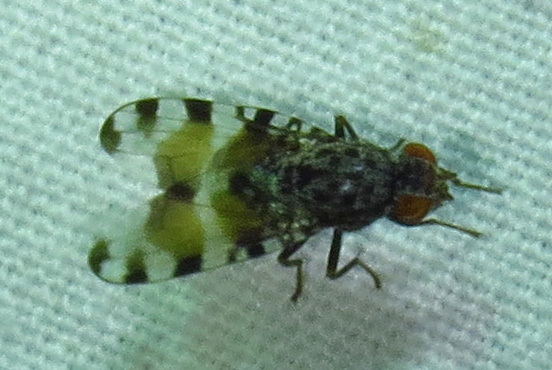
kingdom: Animalia
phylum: Arthropoda
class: Insecta
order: Diptera
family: Ulidiidae
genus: Pseudotephritis
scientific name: Pseudotephritis vau
